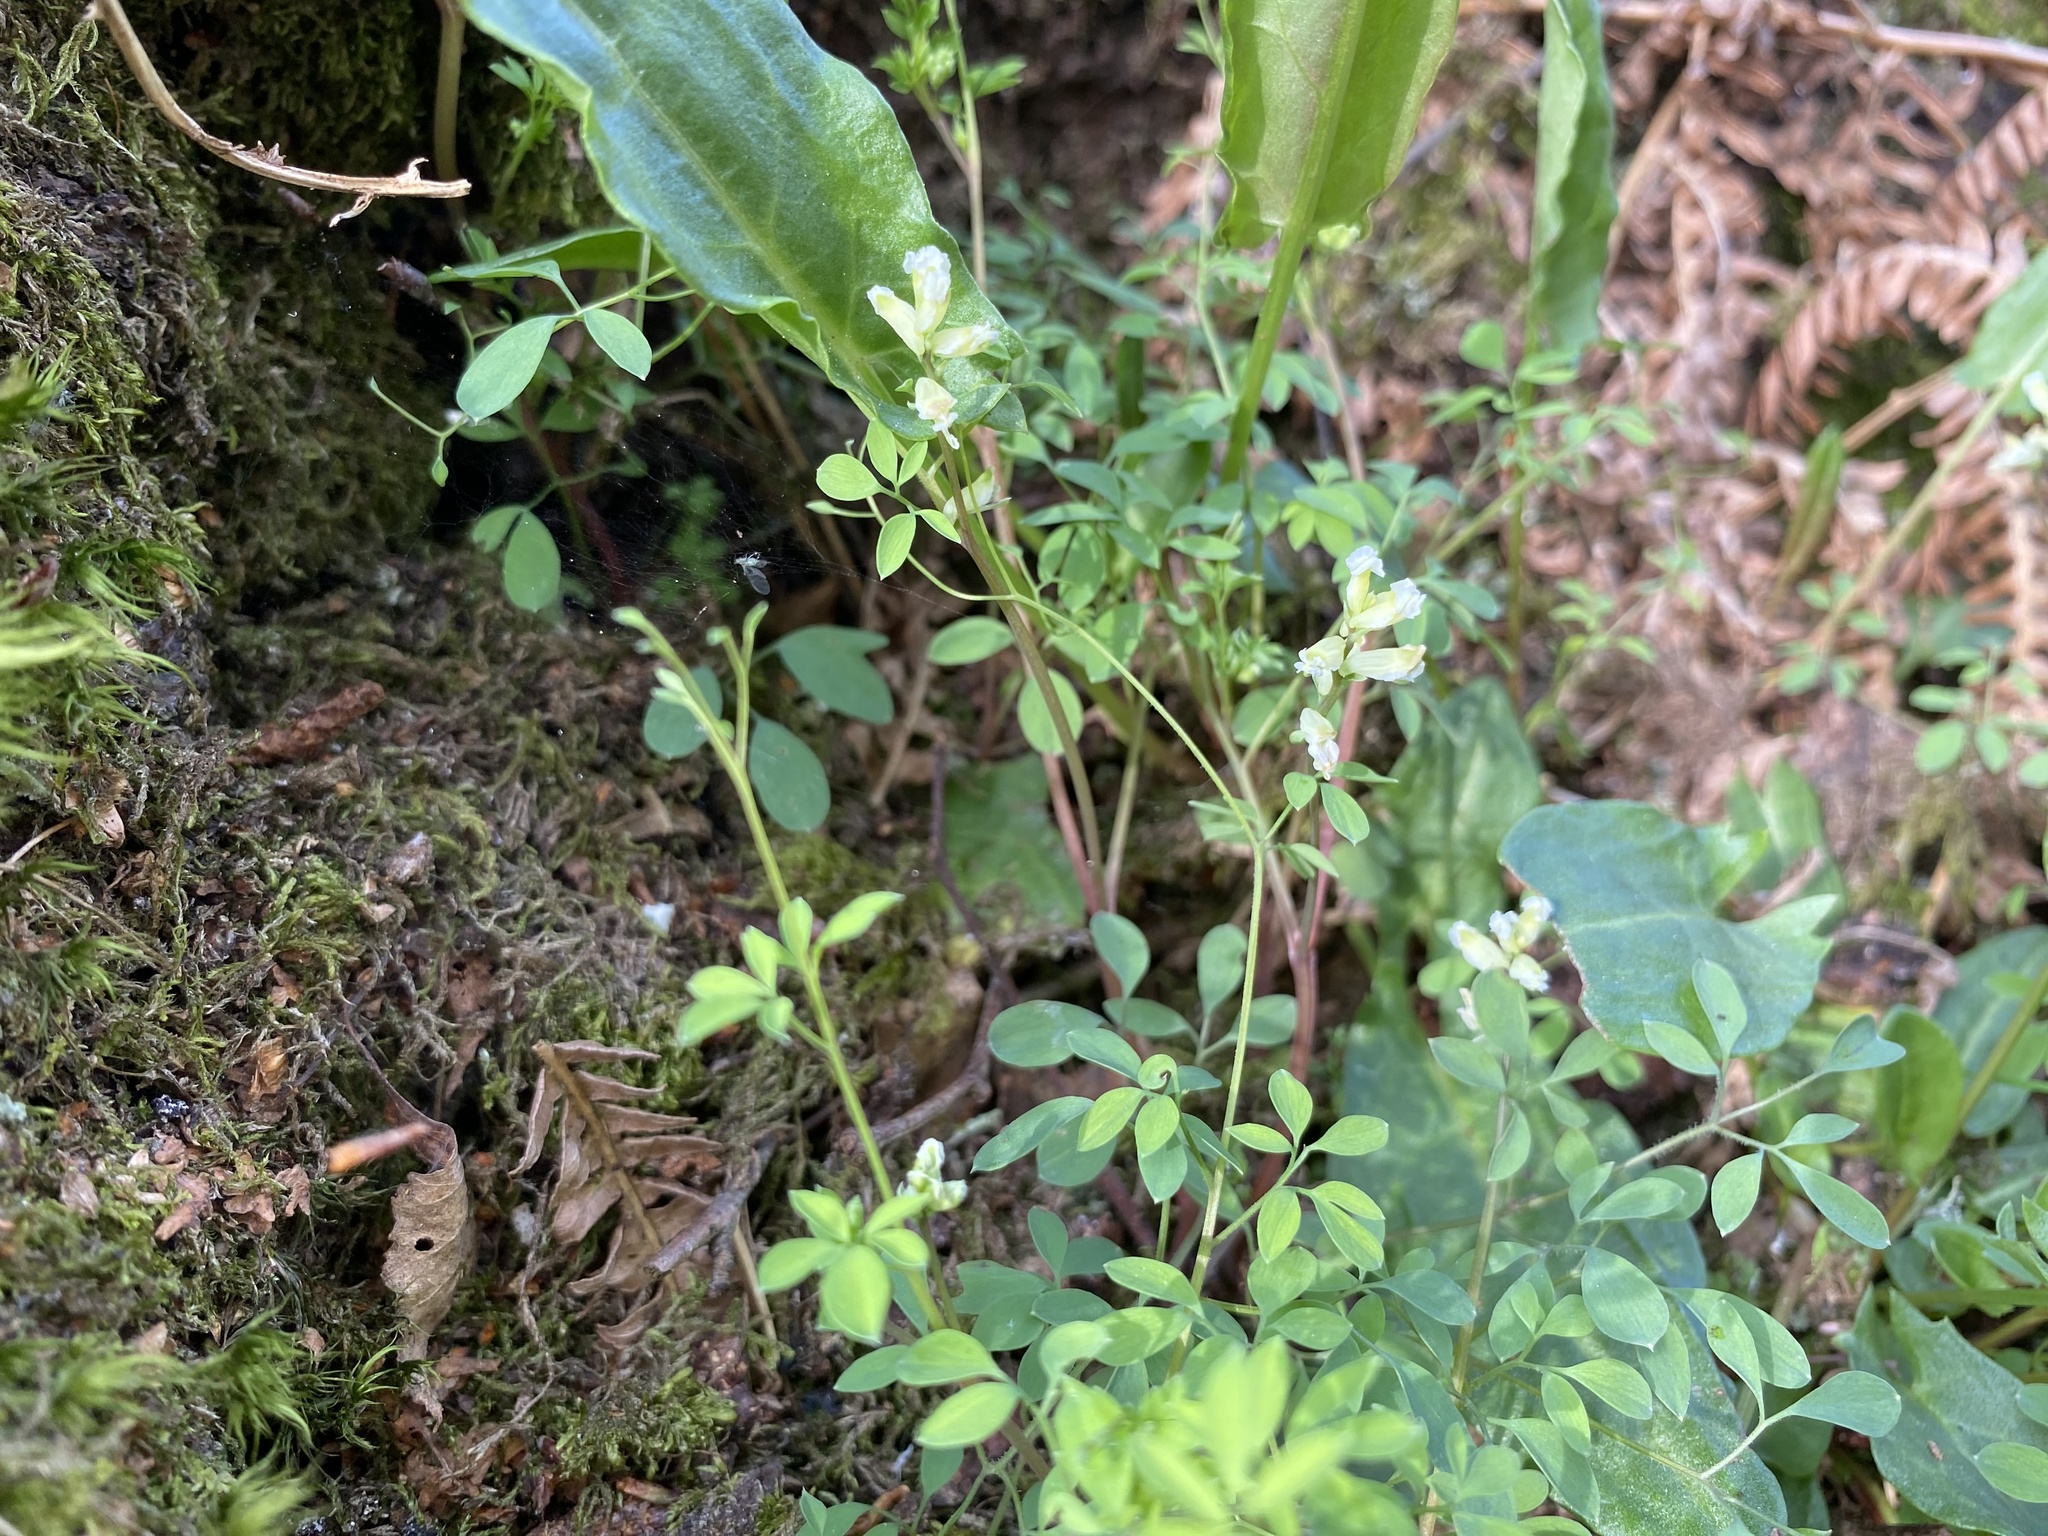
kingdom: Plantae
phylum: Tracheophyta
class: Magnoliopsida
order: Ranunculales
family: Papaveraceae
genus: Ceratocapnos
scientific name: Ceratocapnos claviculata
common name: Climbing corydalis
